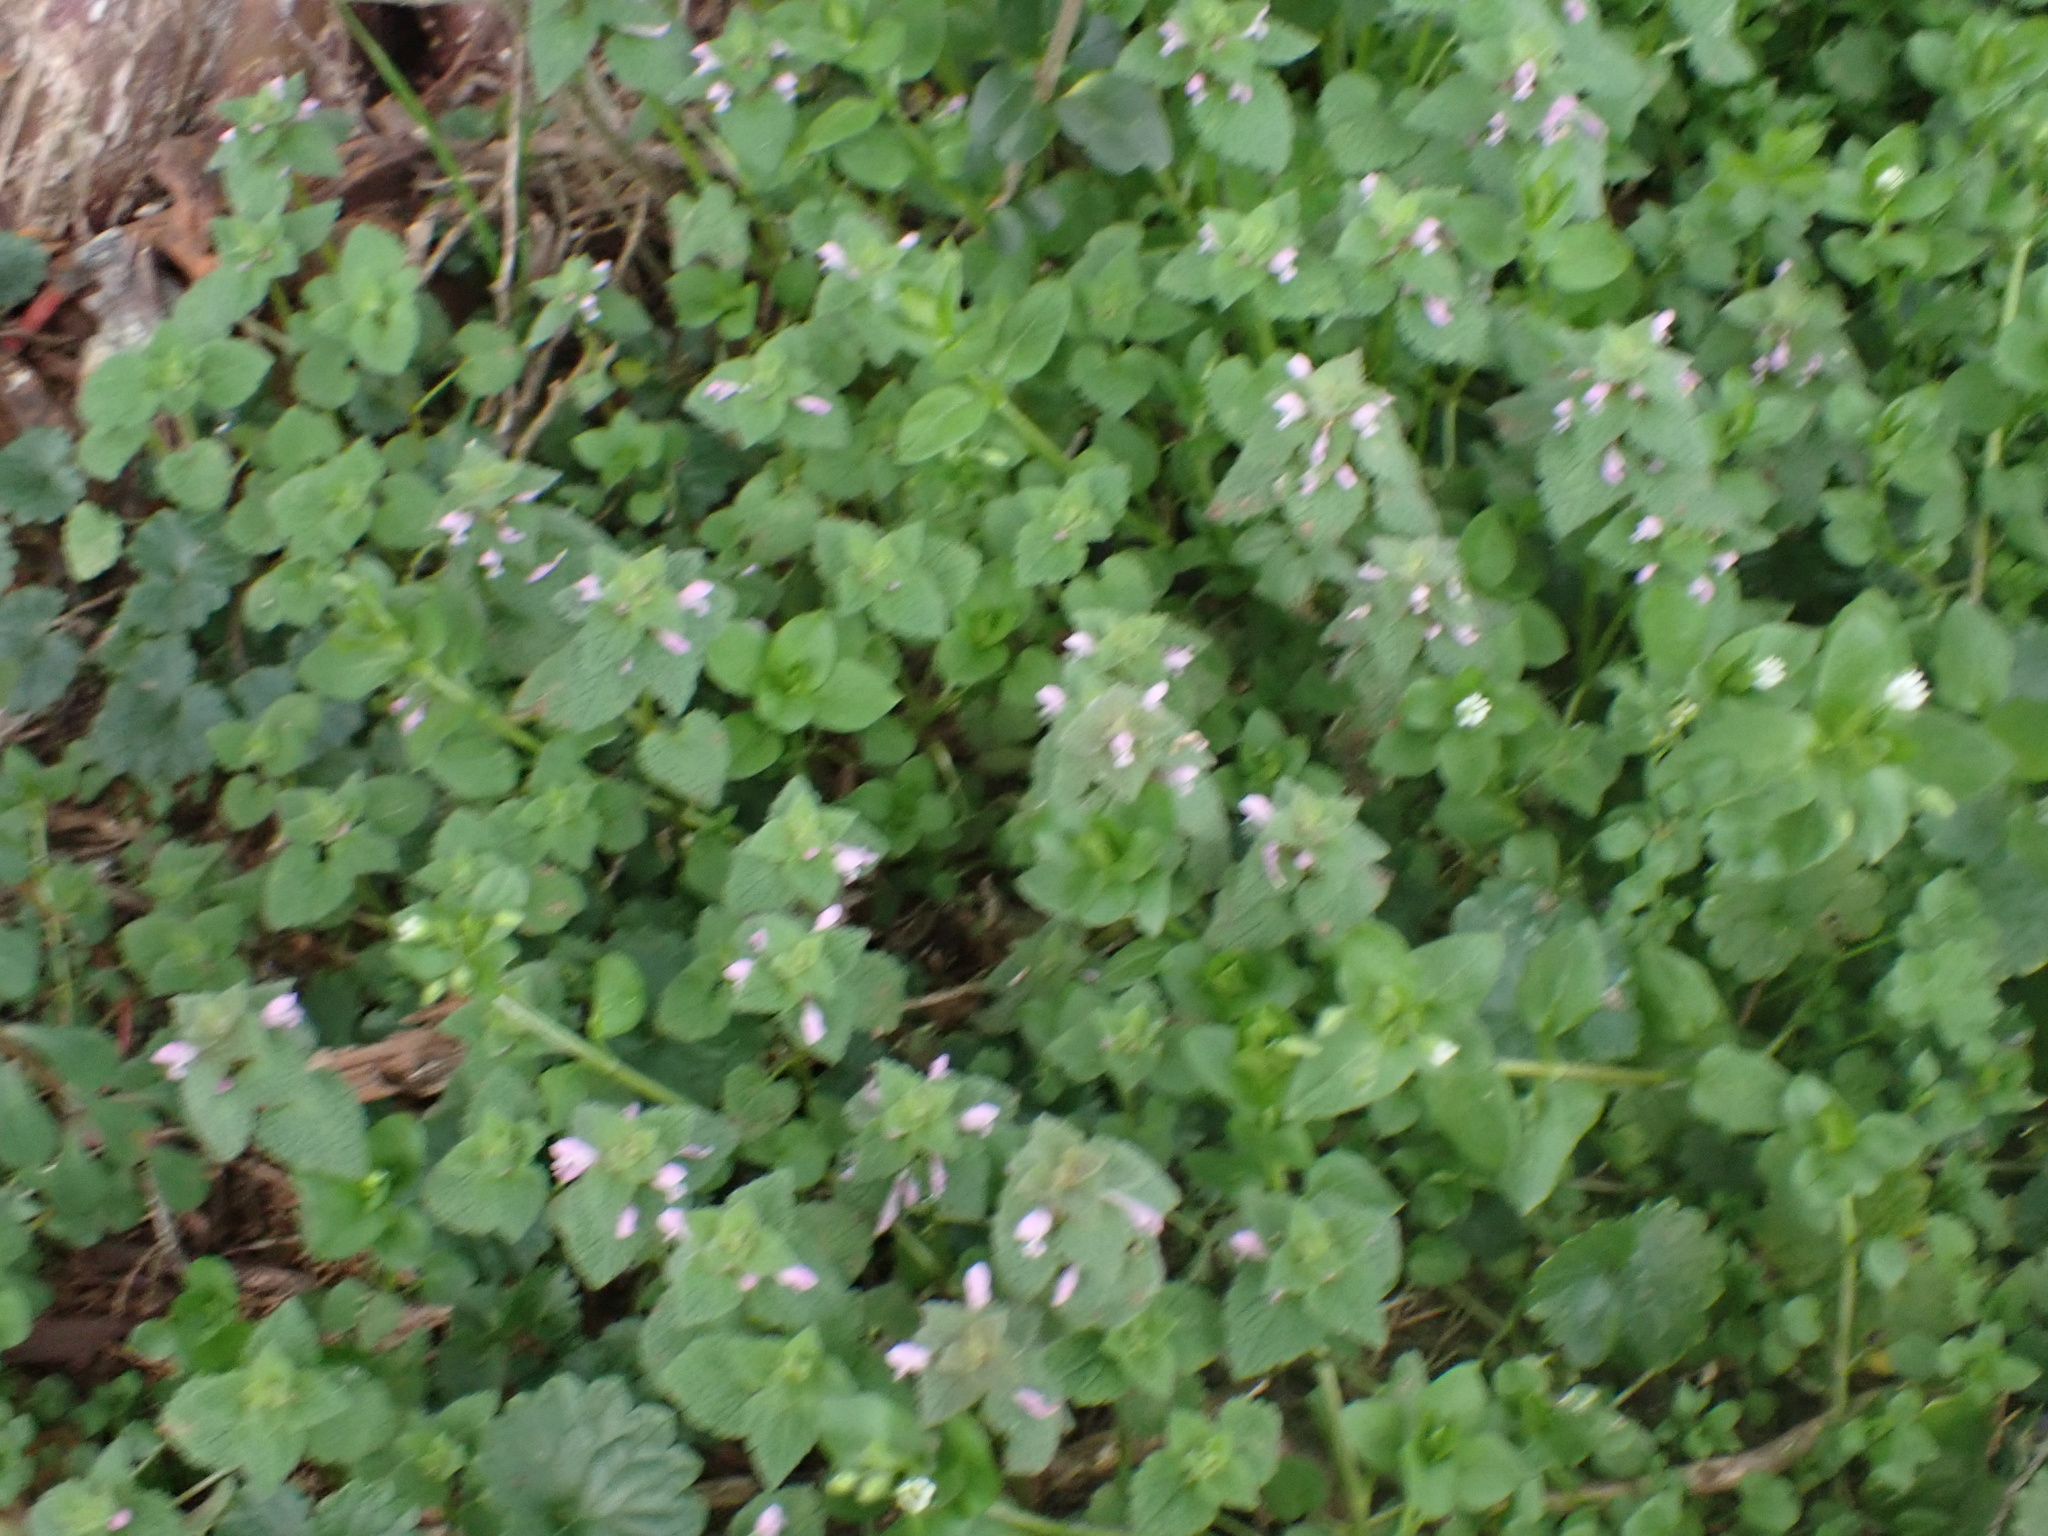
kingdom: Plantae
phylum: Tracheophyta
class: Magnoliopsida
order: Lamiales
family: Lamiaceae
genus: Lamium
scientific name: Lamium purpureum
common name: Red dead-nettle
